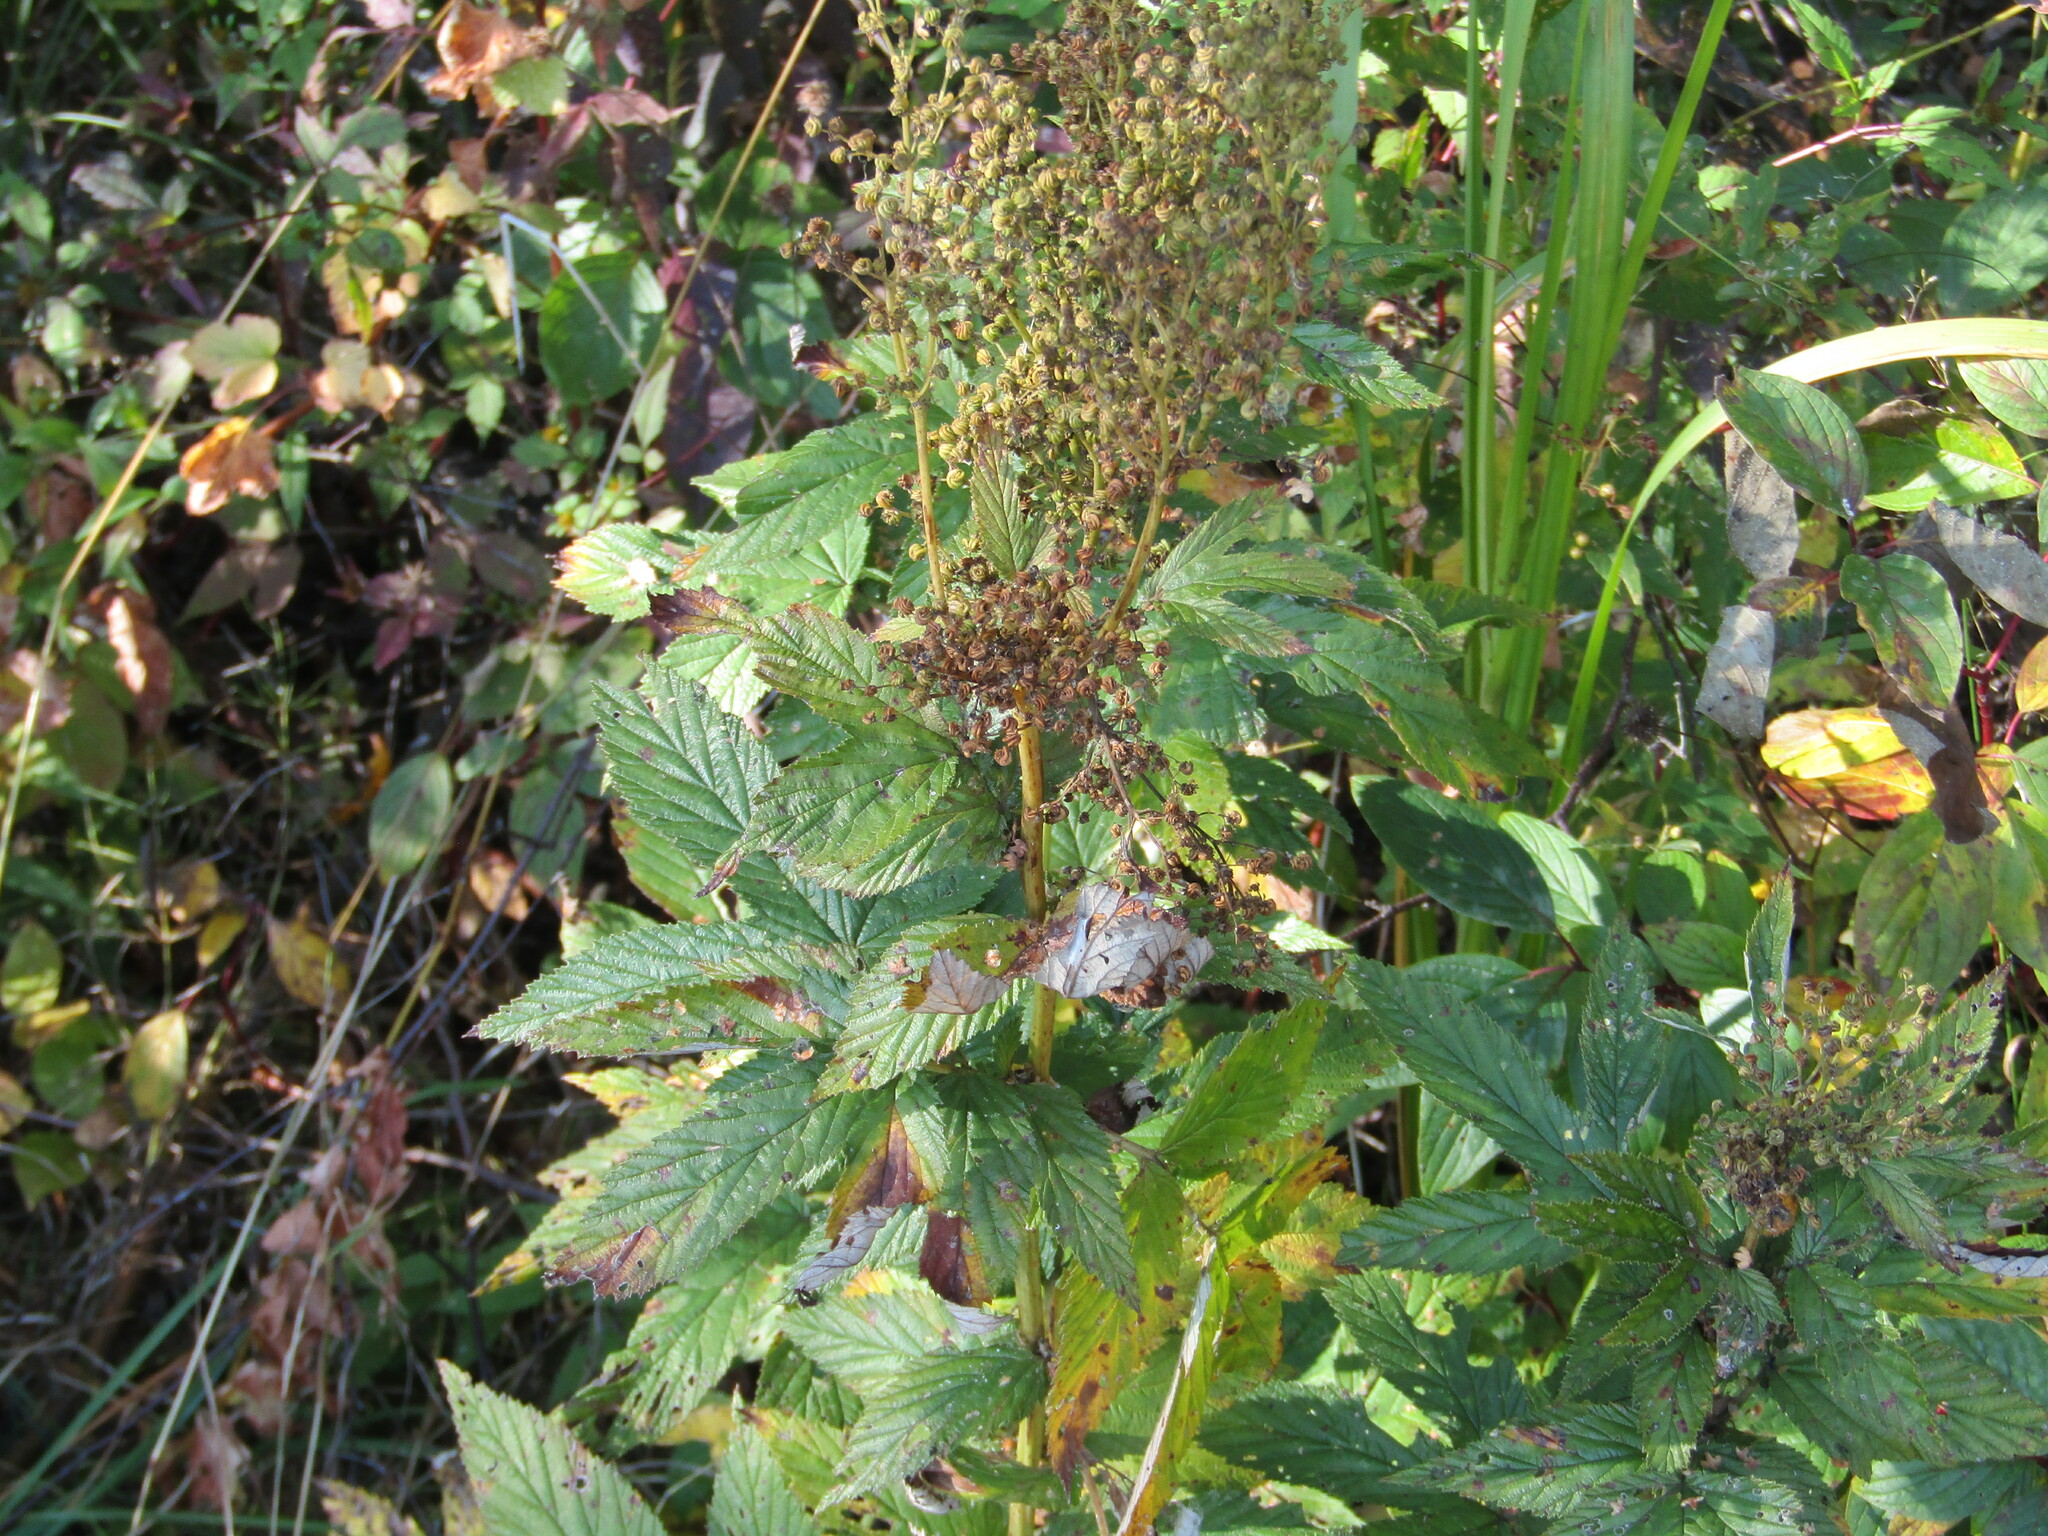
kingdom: Plantae
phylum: Tracheophyta
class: Magnoliopsida
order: Rosales
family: Rosaceae
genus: Filipendula
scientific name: Filipendula ulmaria
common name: Meadowsweet
